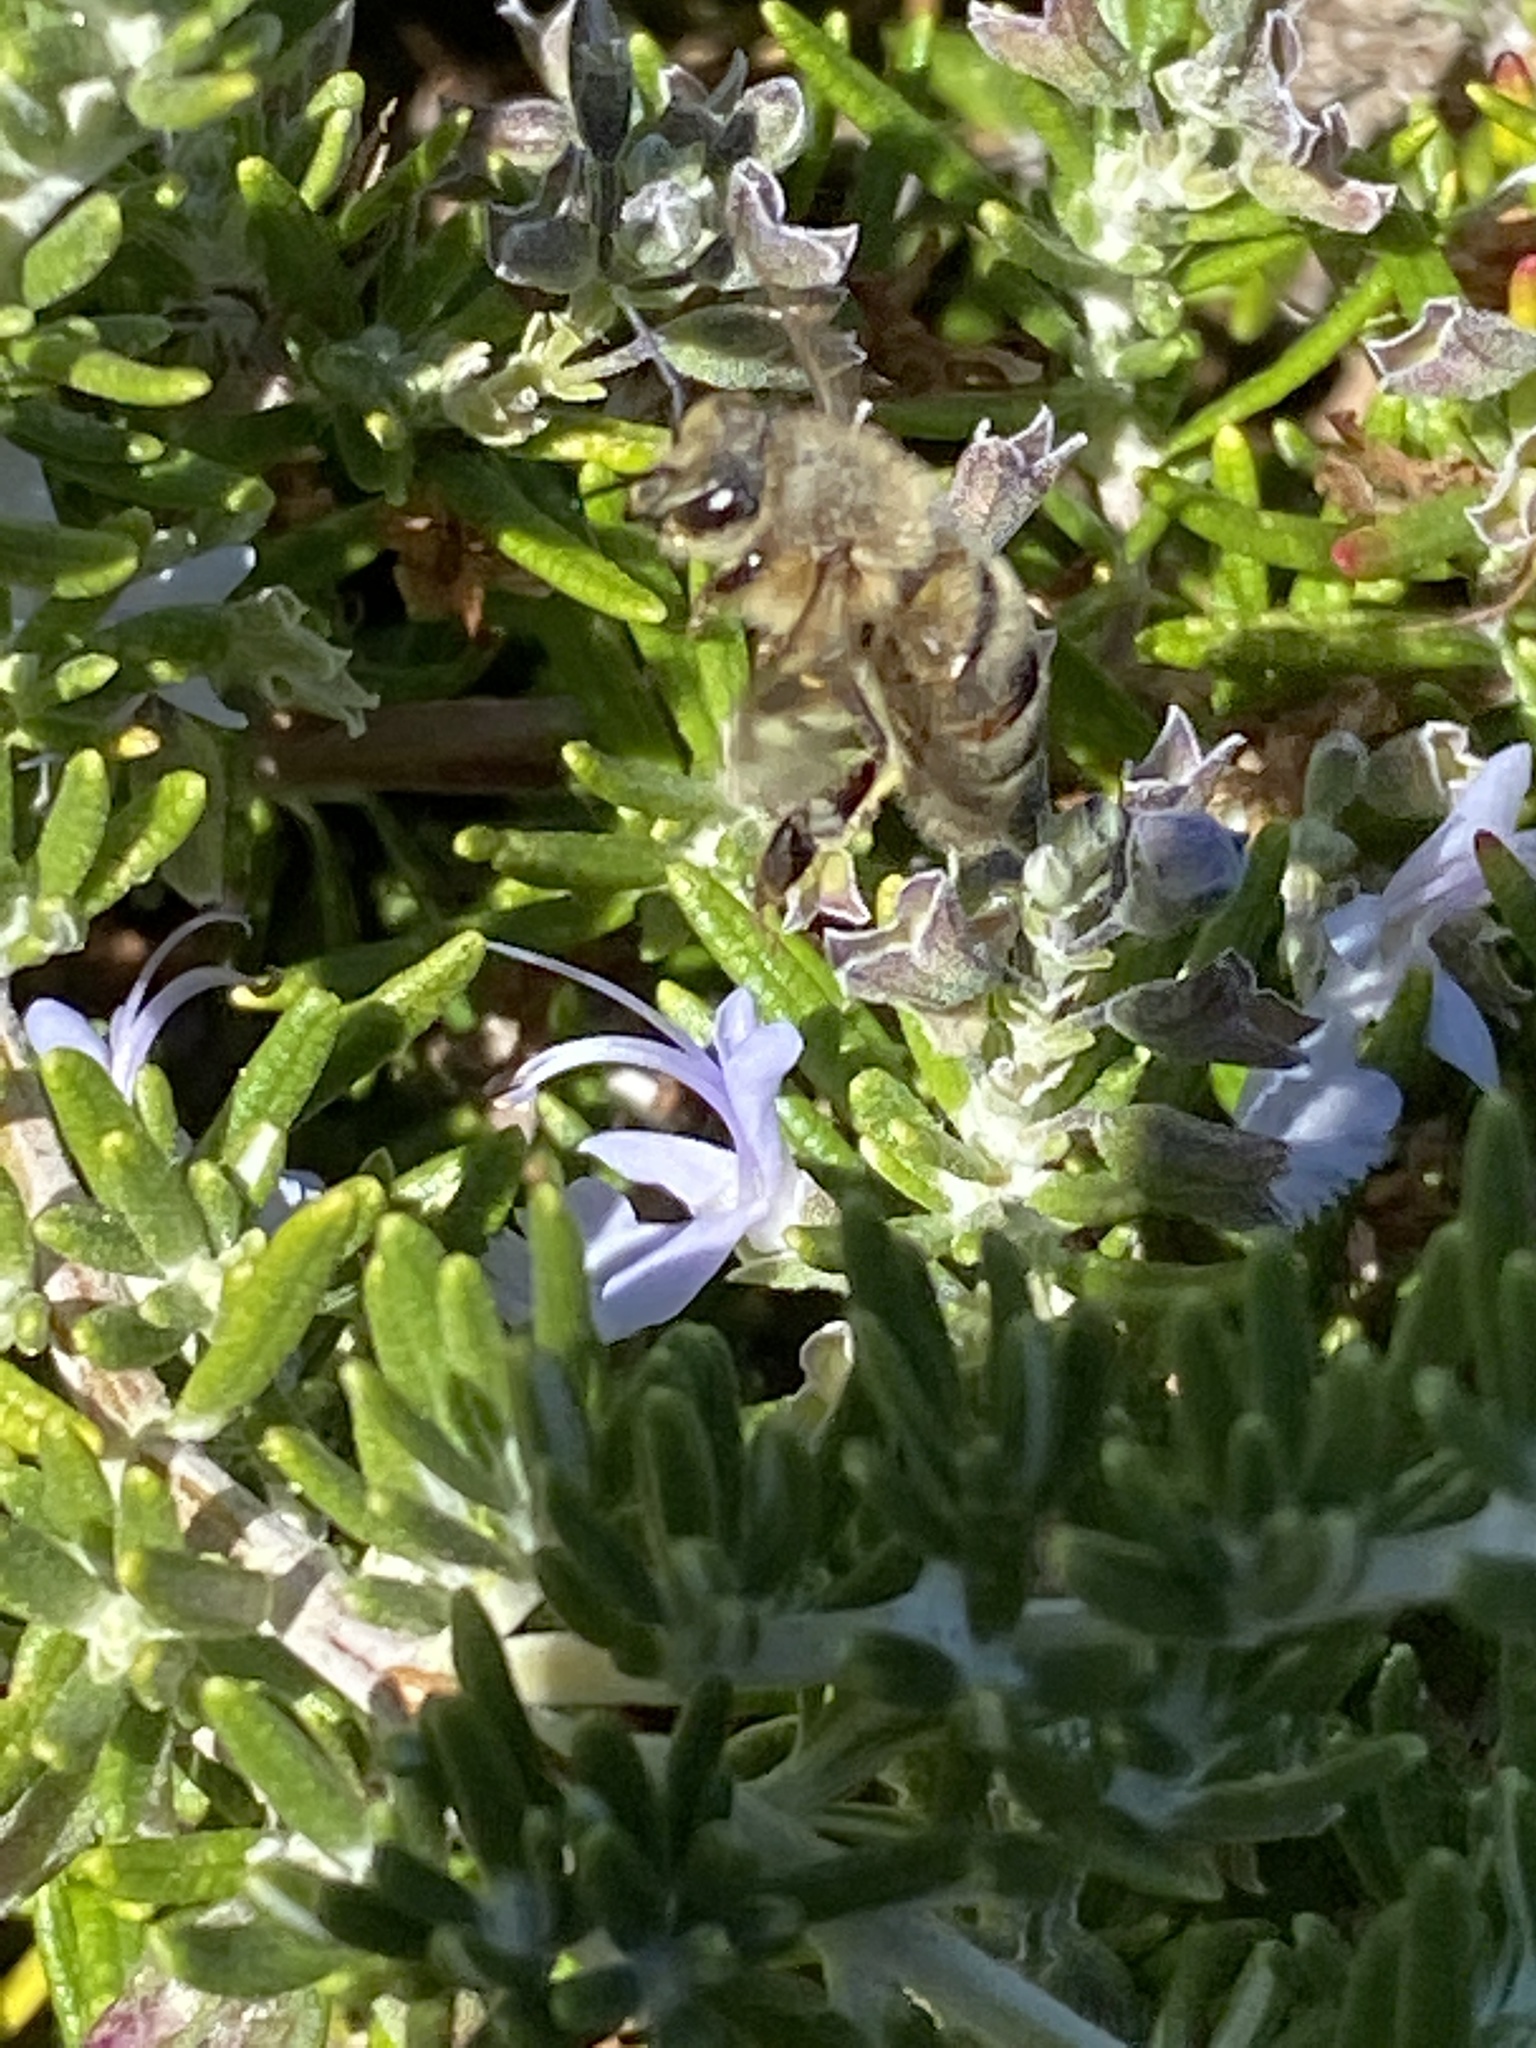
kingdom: Animalia
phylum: Arthropoda
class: Insecta
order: Hymenoptera
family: Apidae
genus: Apis
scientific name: Apis mellifera
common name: Honey bee
